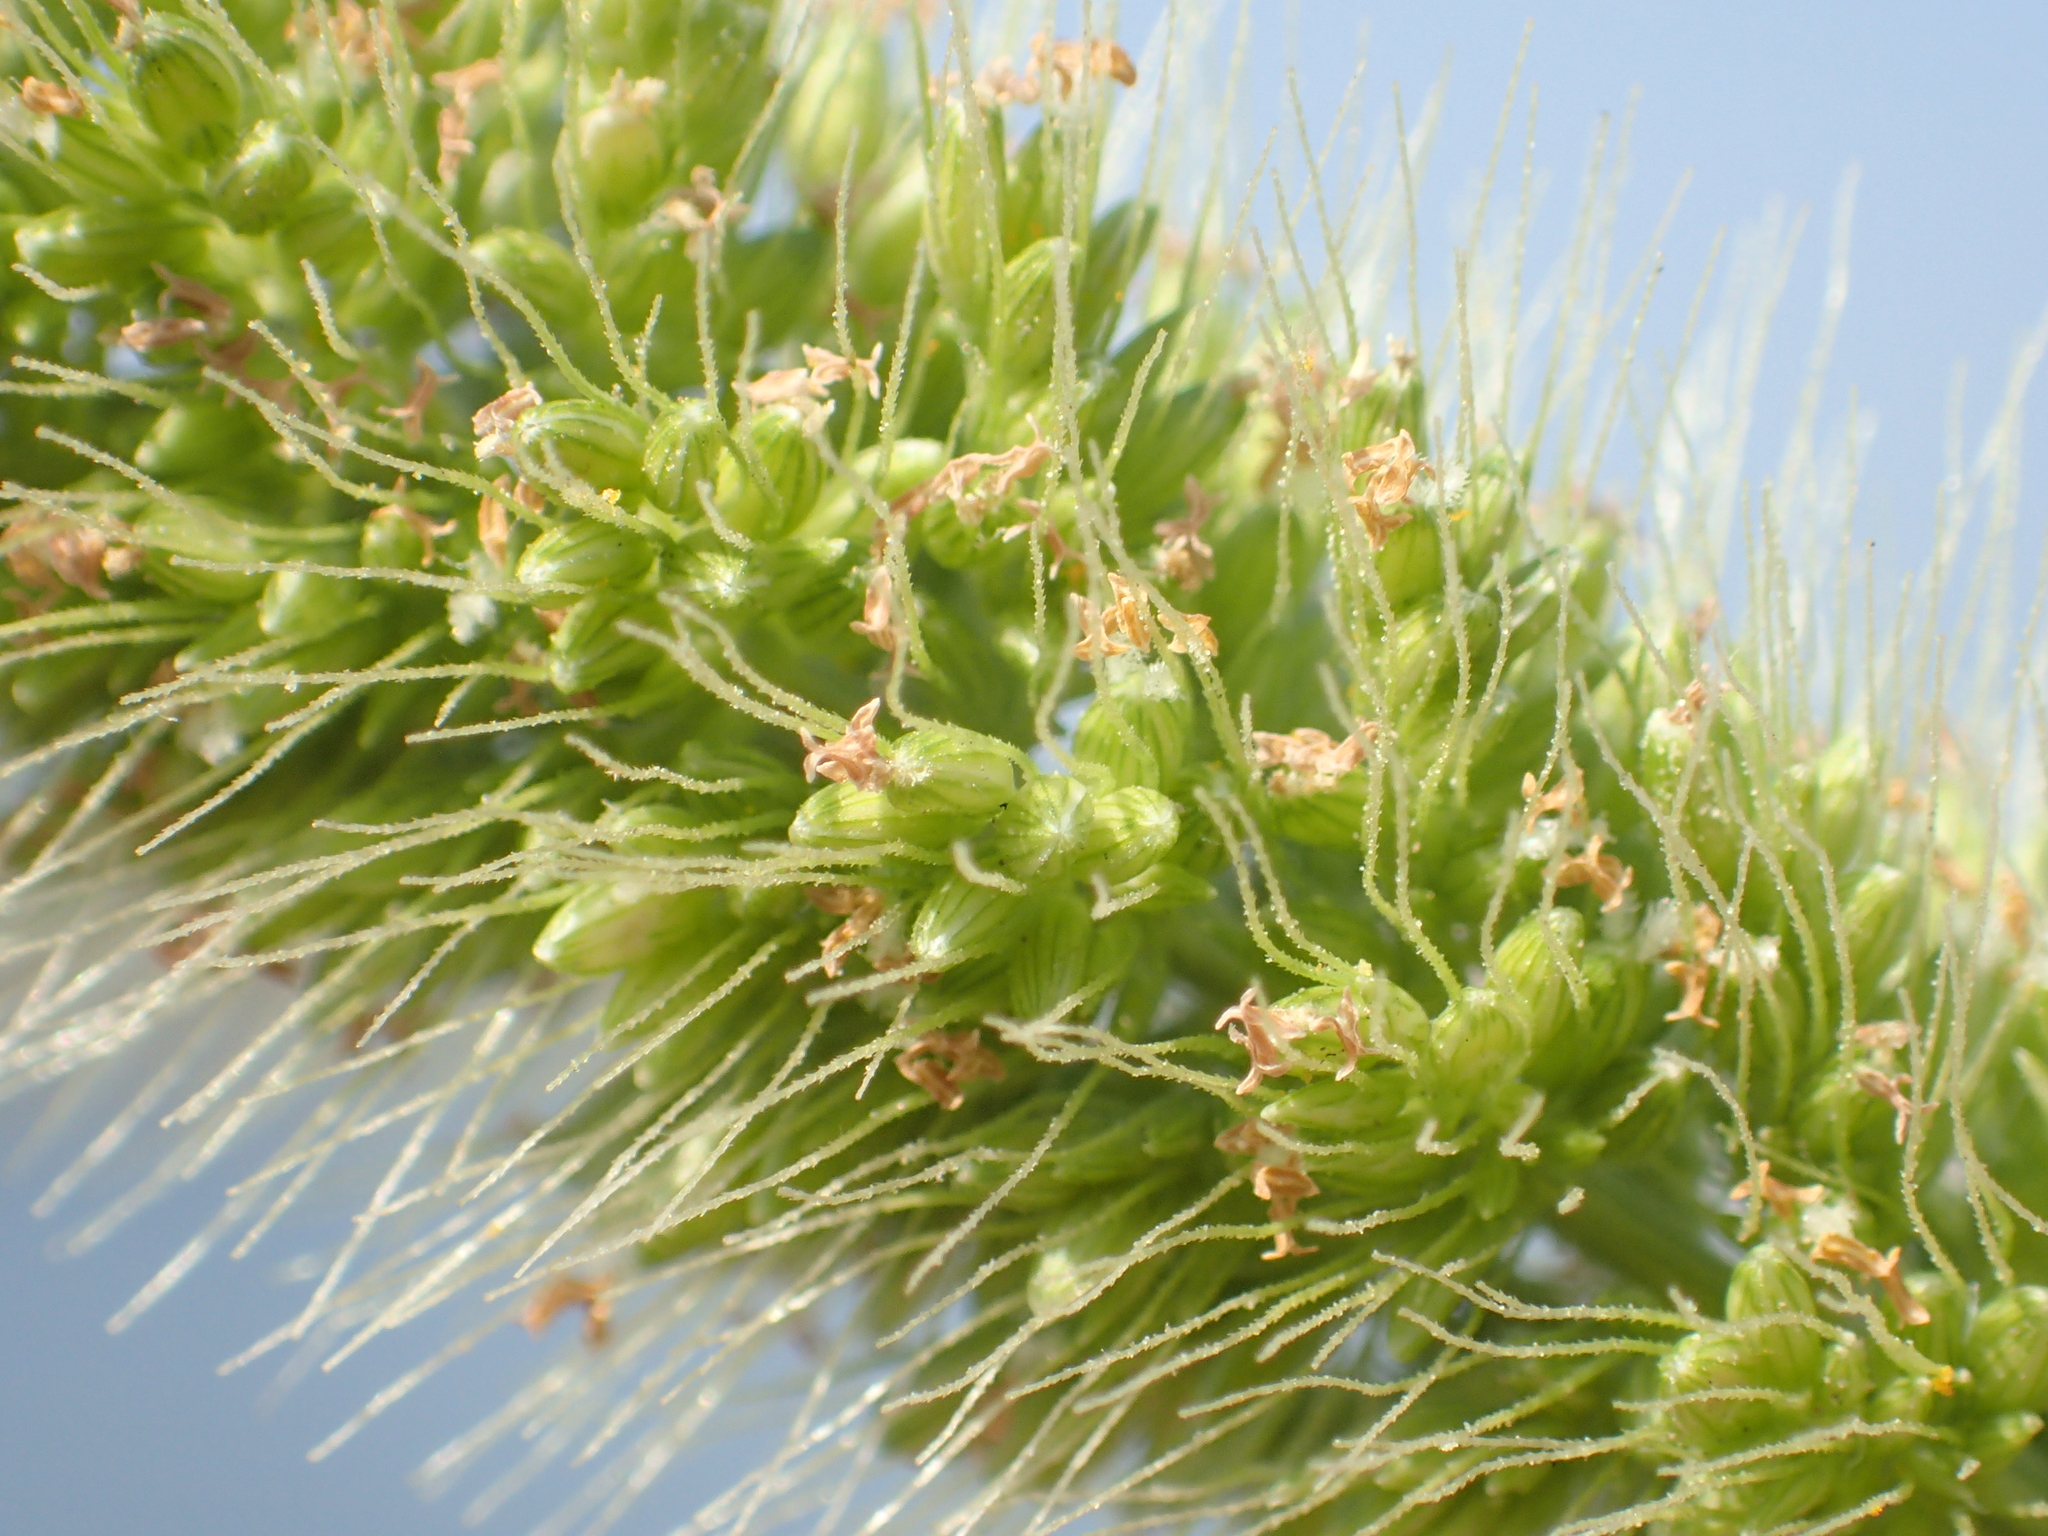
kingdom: Plantae
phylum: Tracheophyta
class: Liliopsida
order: Poales
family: Poaceae
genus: Setaria
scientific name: Setaria verticillata
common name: Hooked bristlegrass
